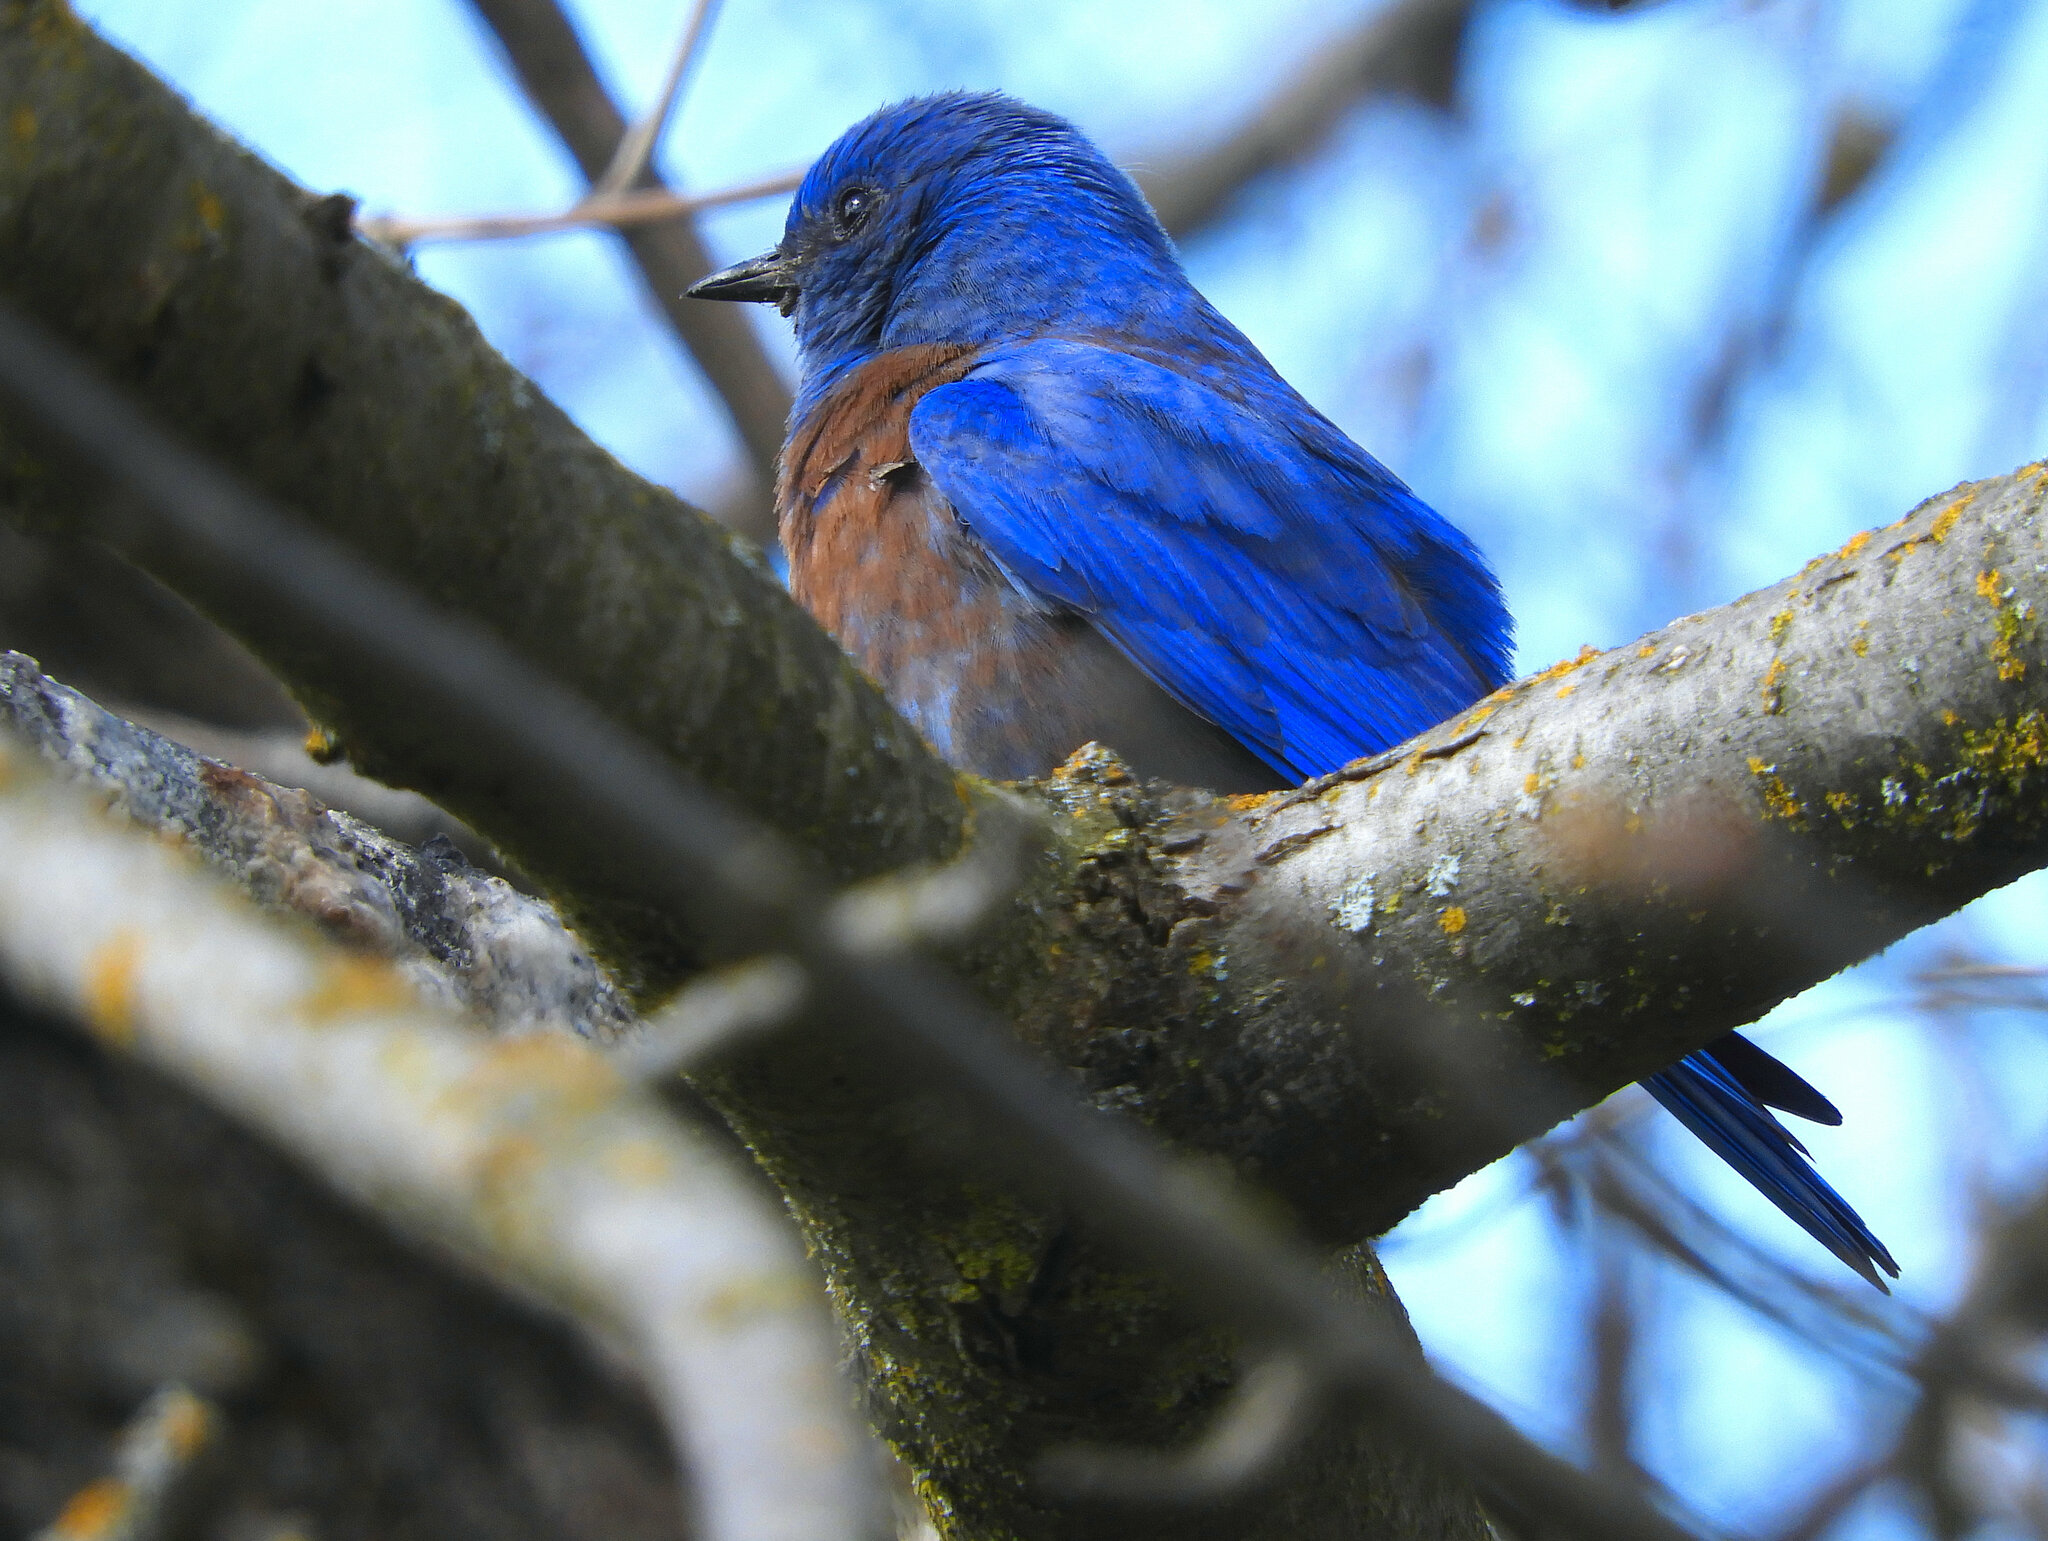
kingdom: Animalia
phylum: Chordata
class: Aves
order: Passeriformes
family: Turdidae
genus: Sialia
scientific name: Sialia mexicana
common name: Western bluebird
